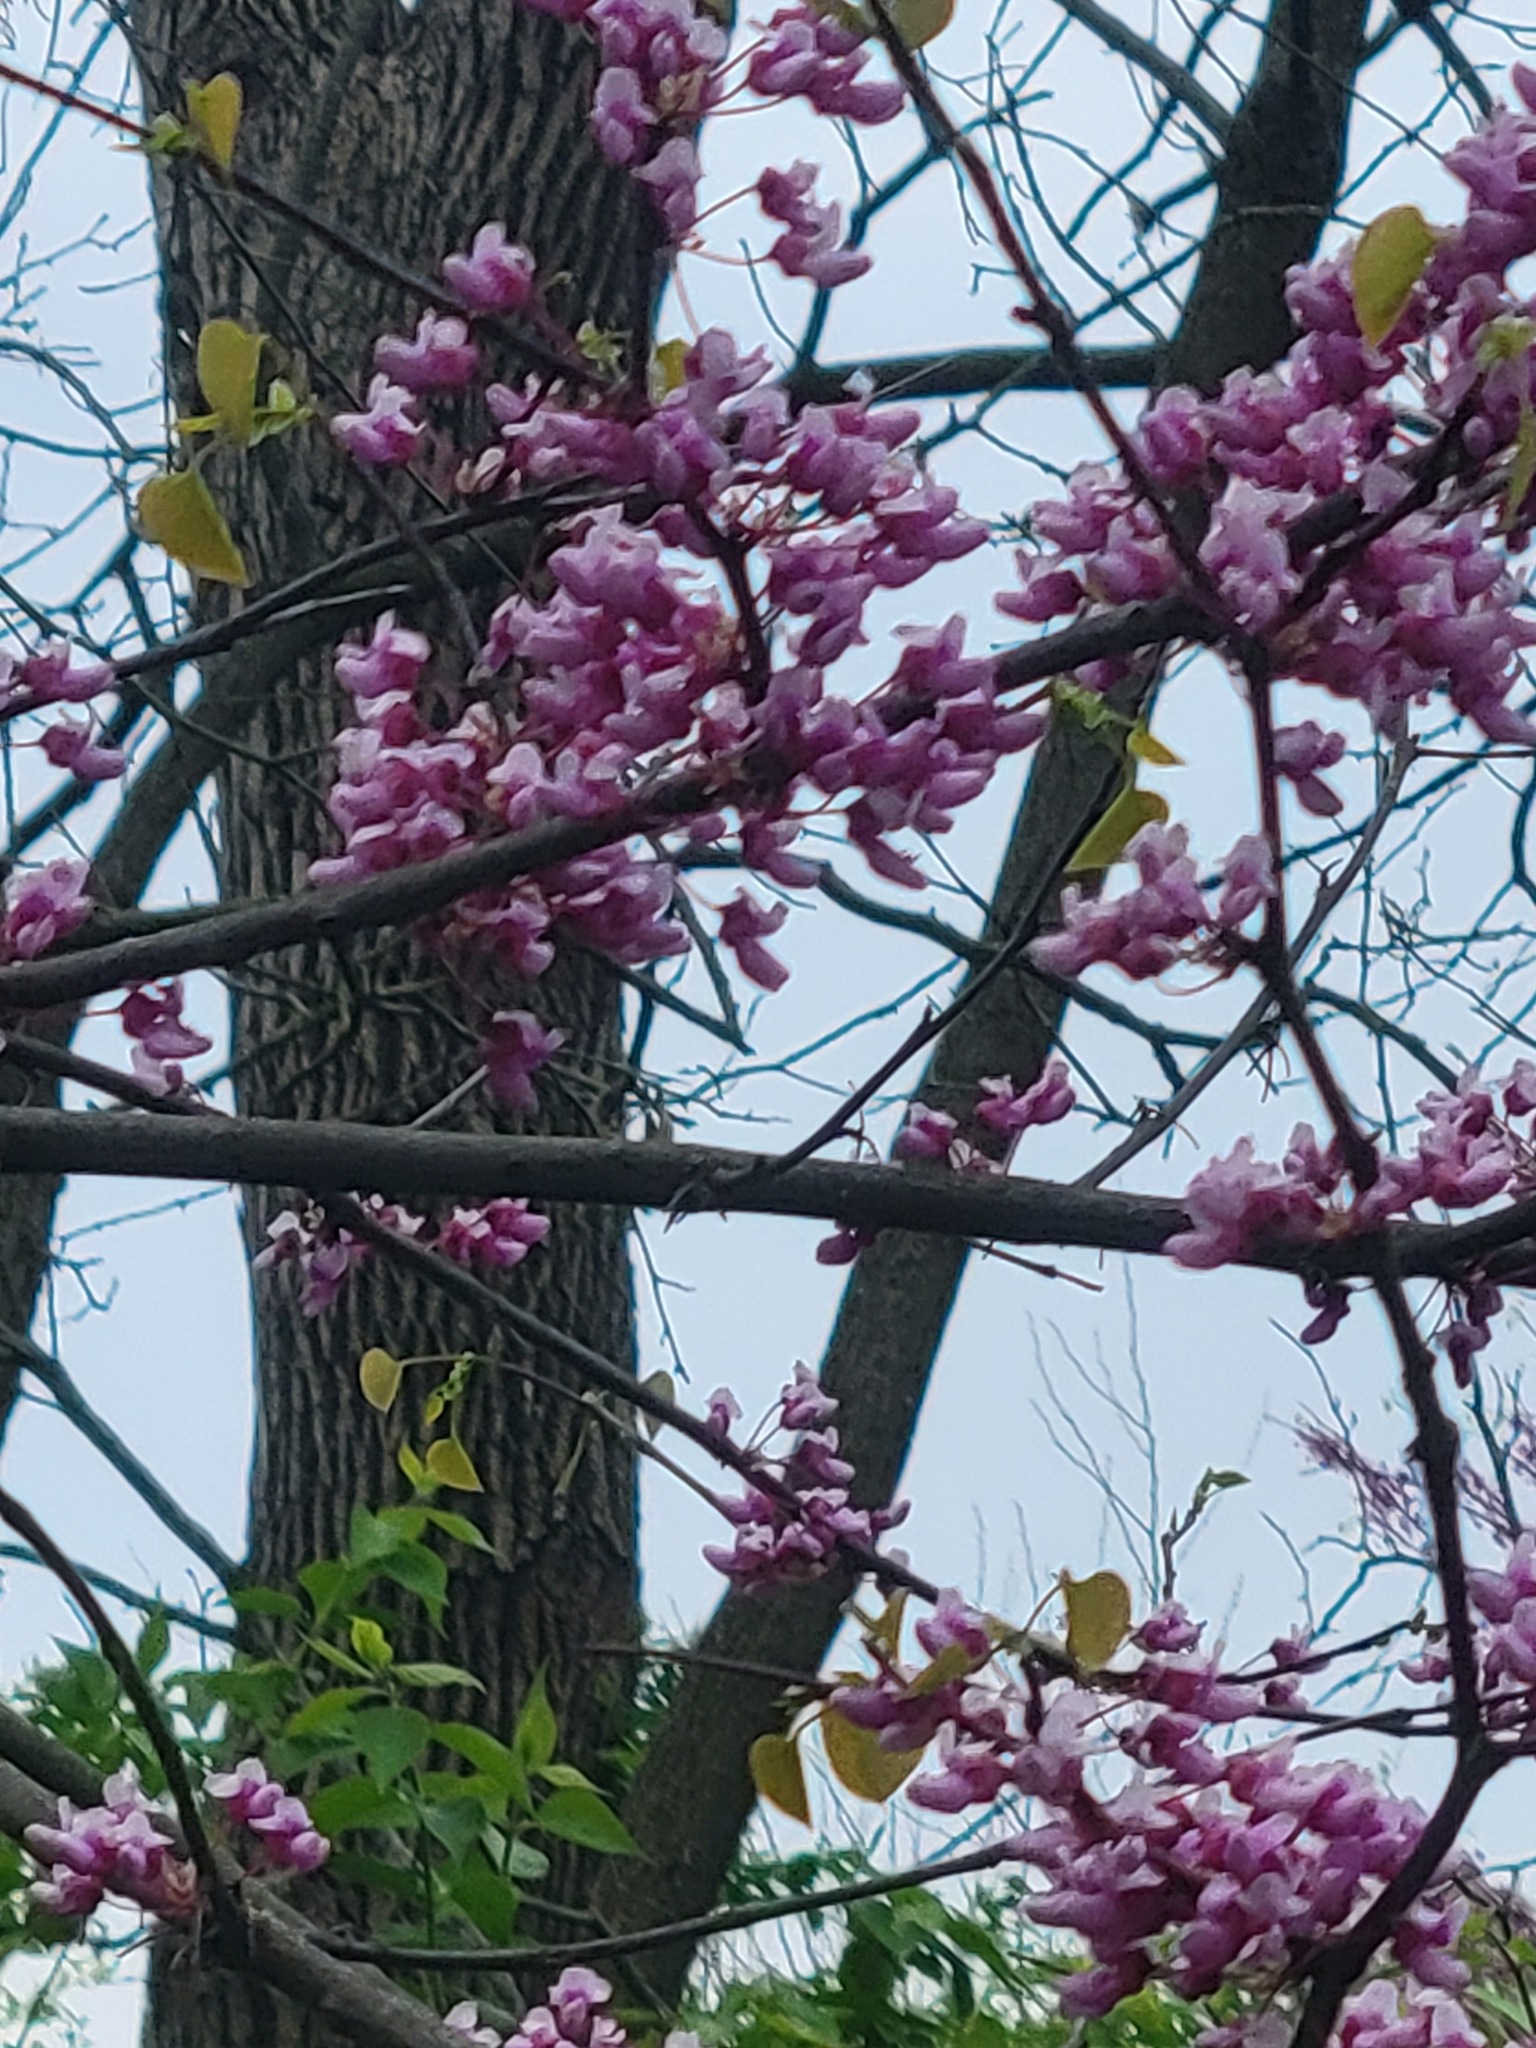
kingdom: Plantae
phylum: Tracheophyta
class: Magnoliopsida
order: Fabales
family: Fabaceae
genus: Cercis
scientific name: Cercis canadensis
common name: Eastern redbud
